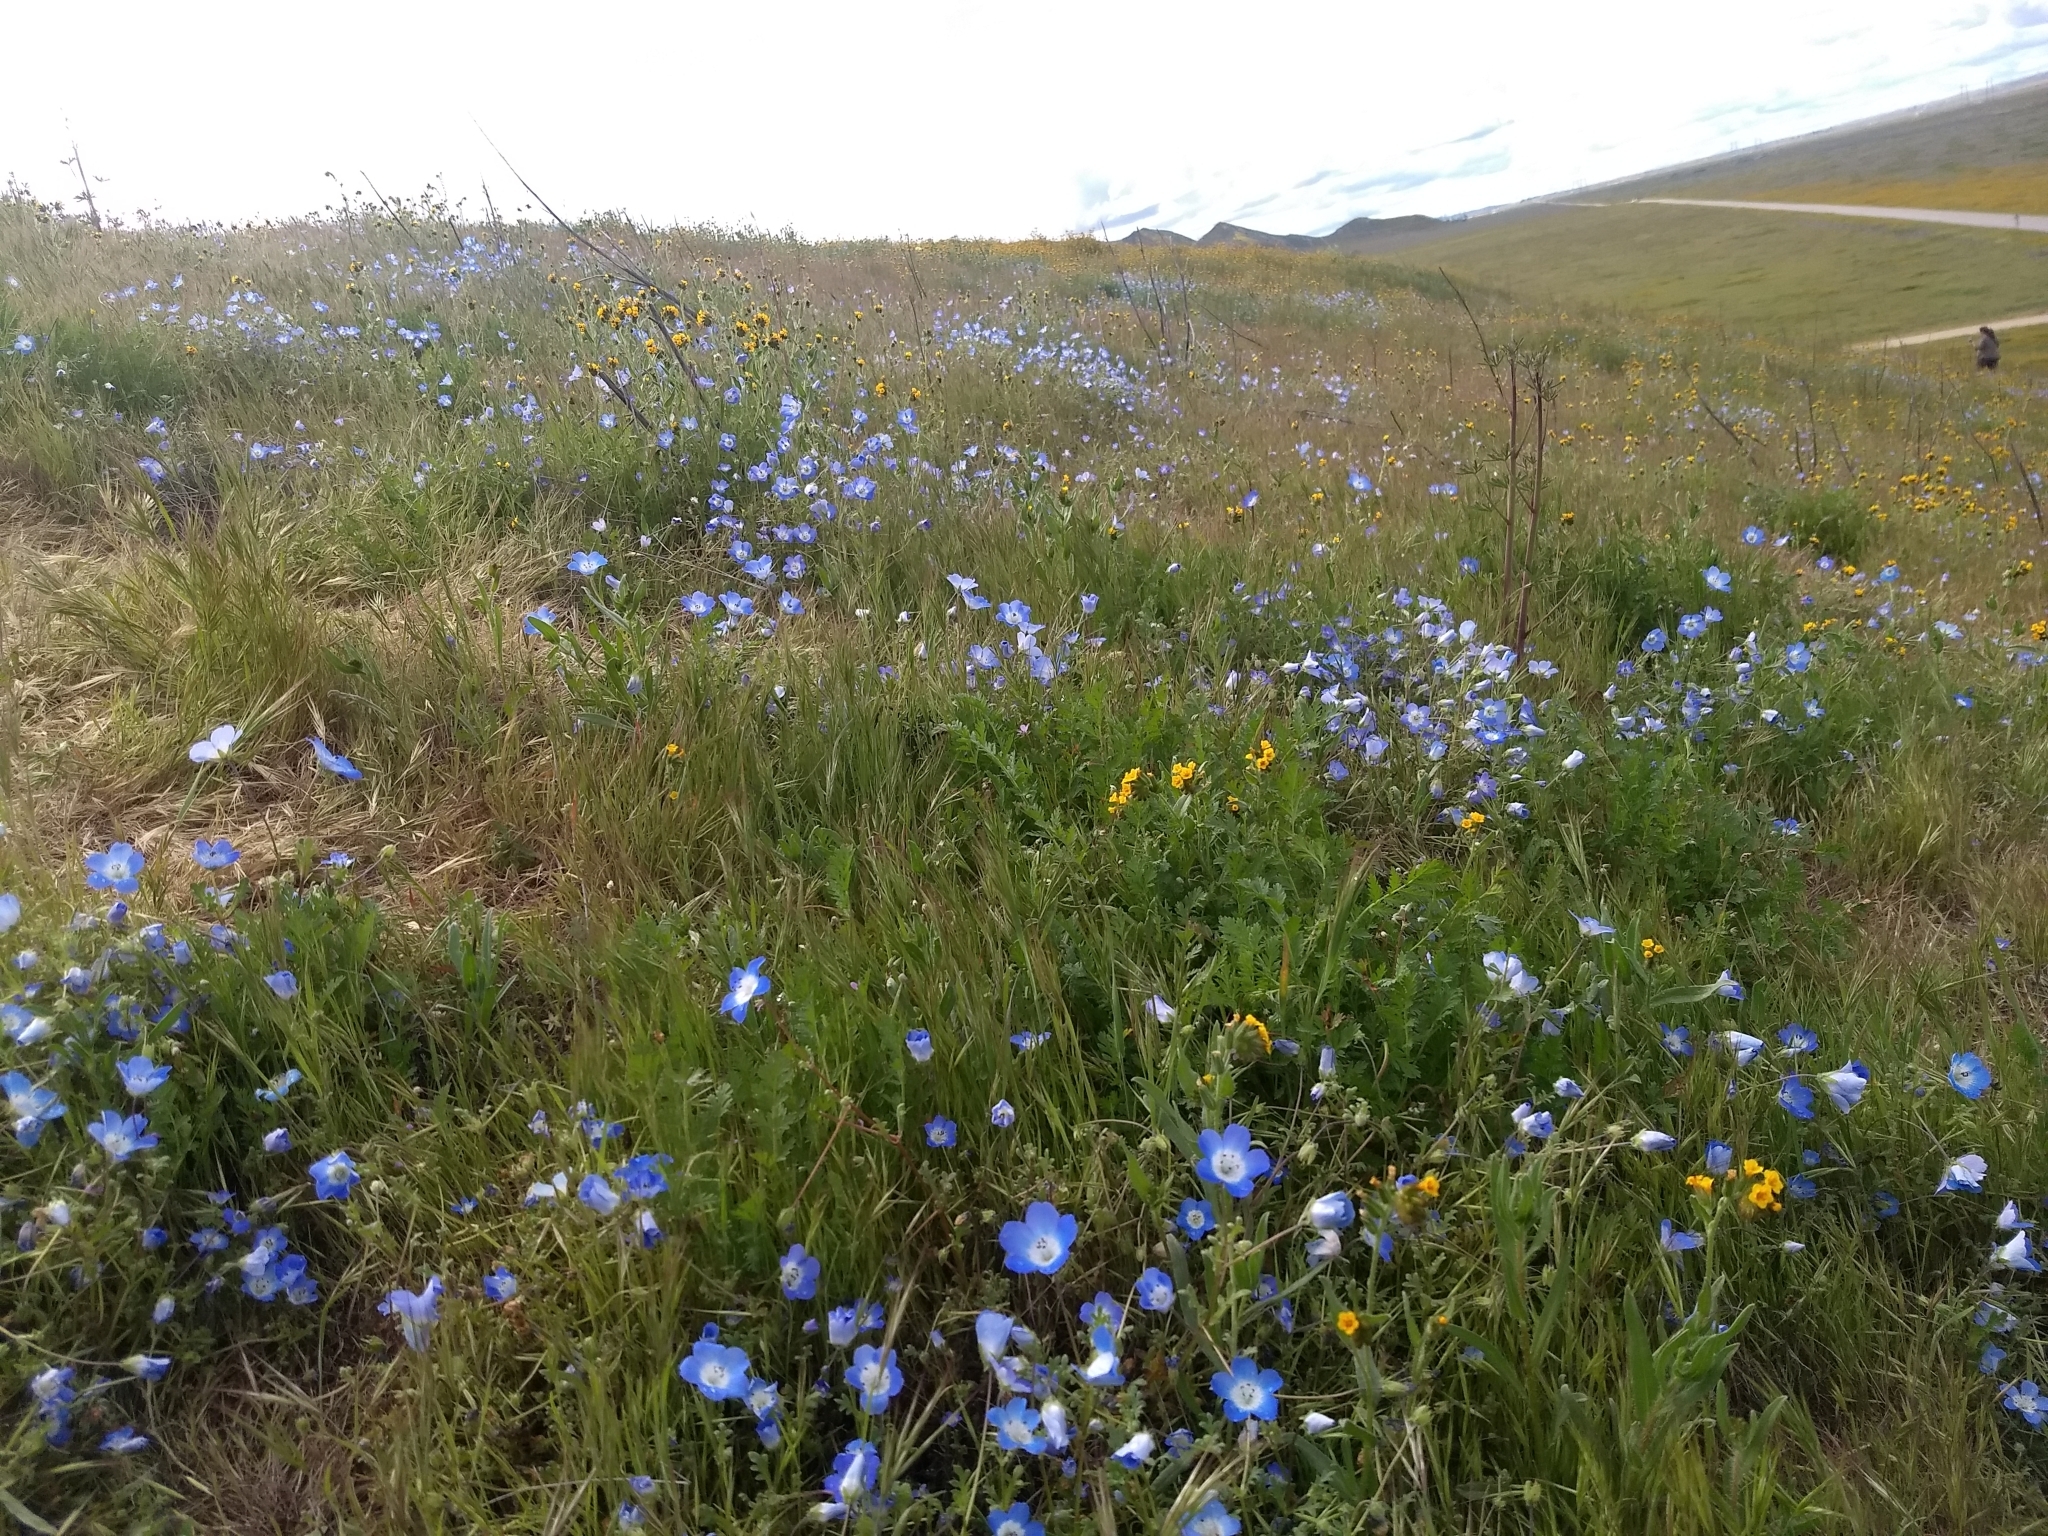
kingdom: Plantae
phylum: Tracheophyta
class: Magnoliopsida
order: Boraginales
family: Hydrophyllaceae
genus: Nemophila
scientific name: Nemophila menziesii
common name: Baby's-blue-eyes
